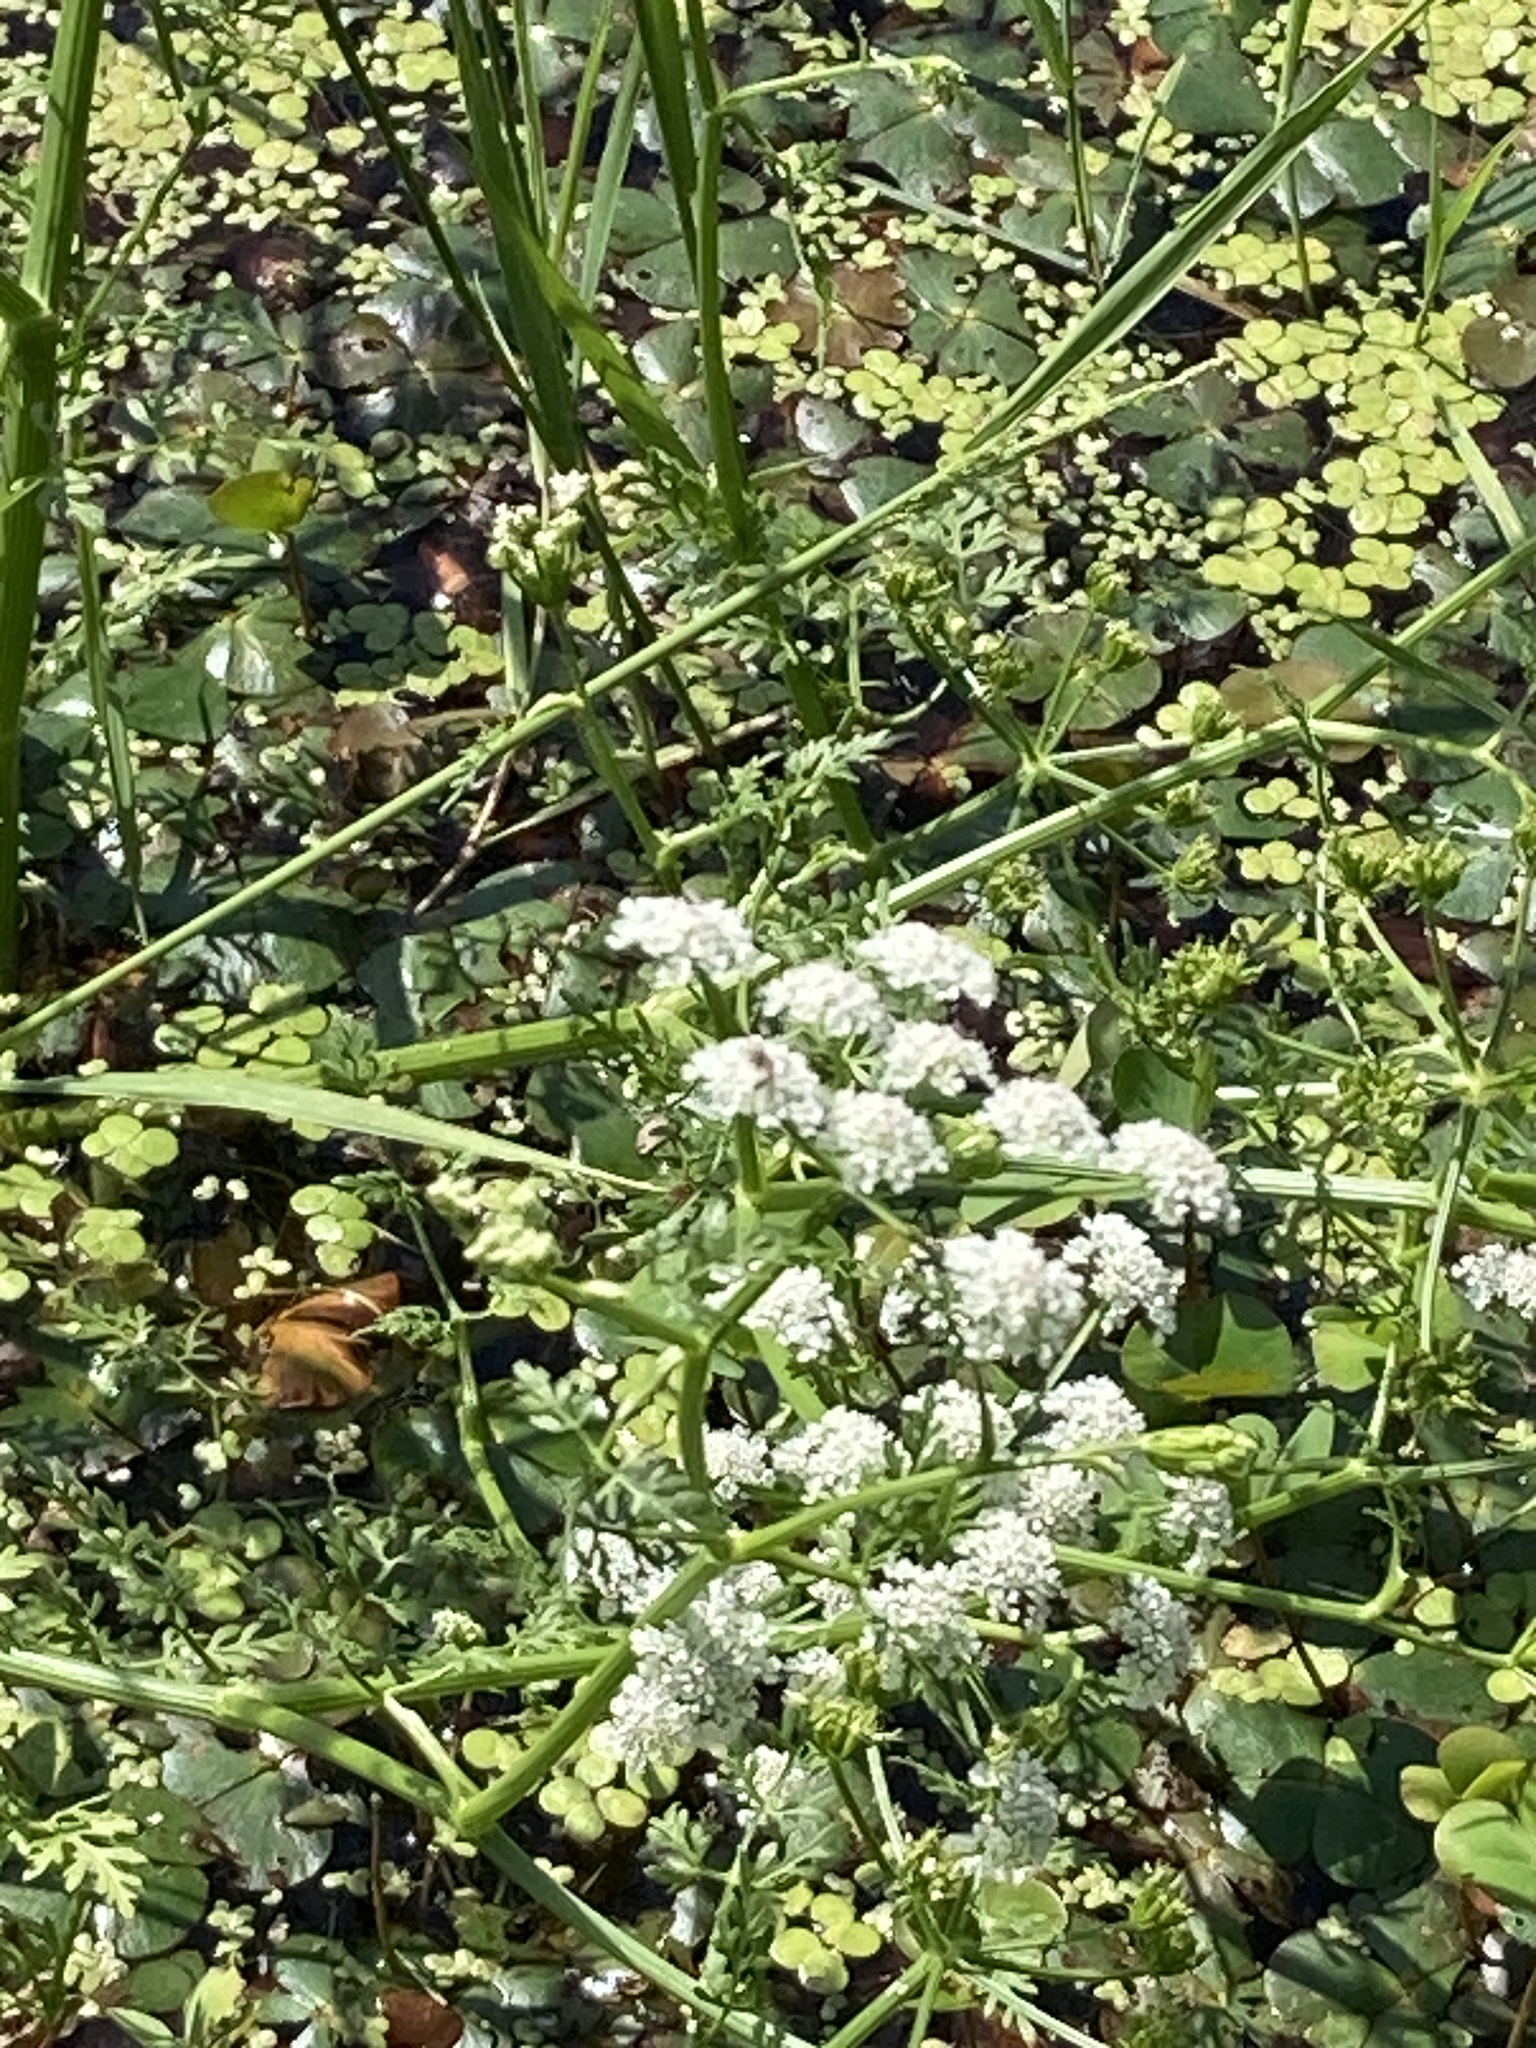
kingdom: Plantae
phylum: Tracheophyta
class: Magnoliopsida
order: Apiales
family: Apiaceae
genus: Oenanthe
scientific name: Oenanthe aquatica
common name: Fine-leaved water-dropwort
